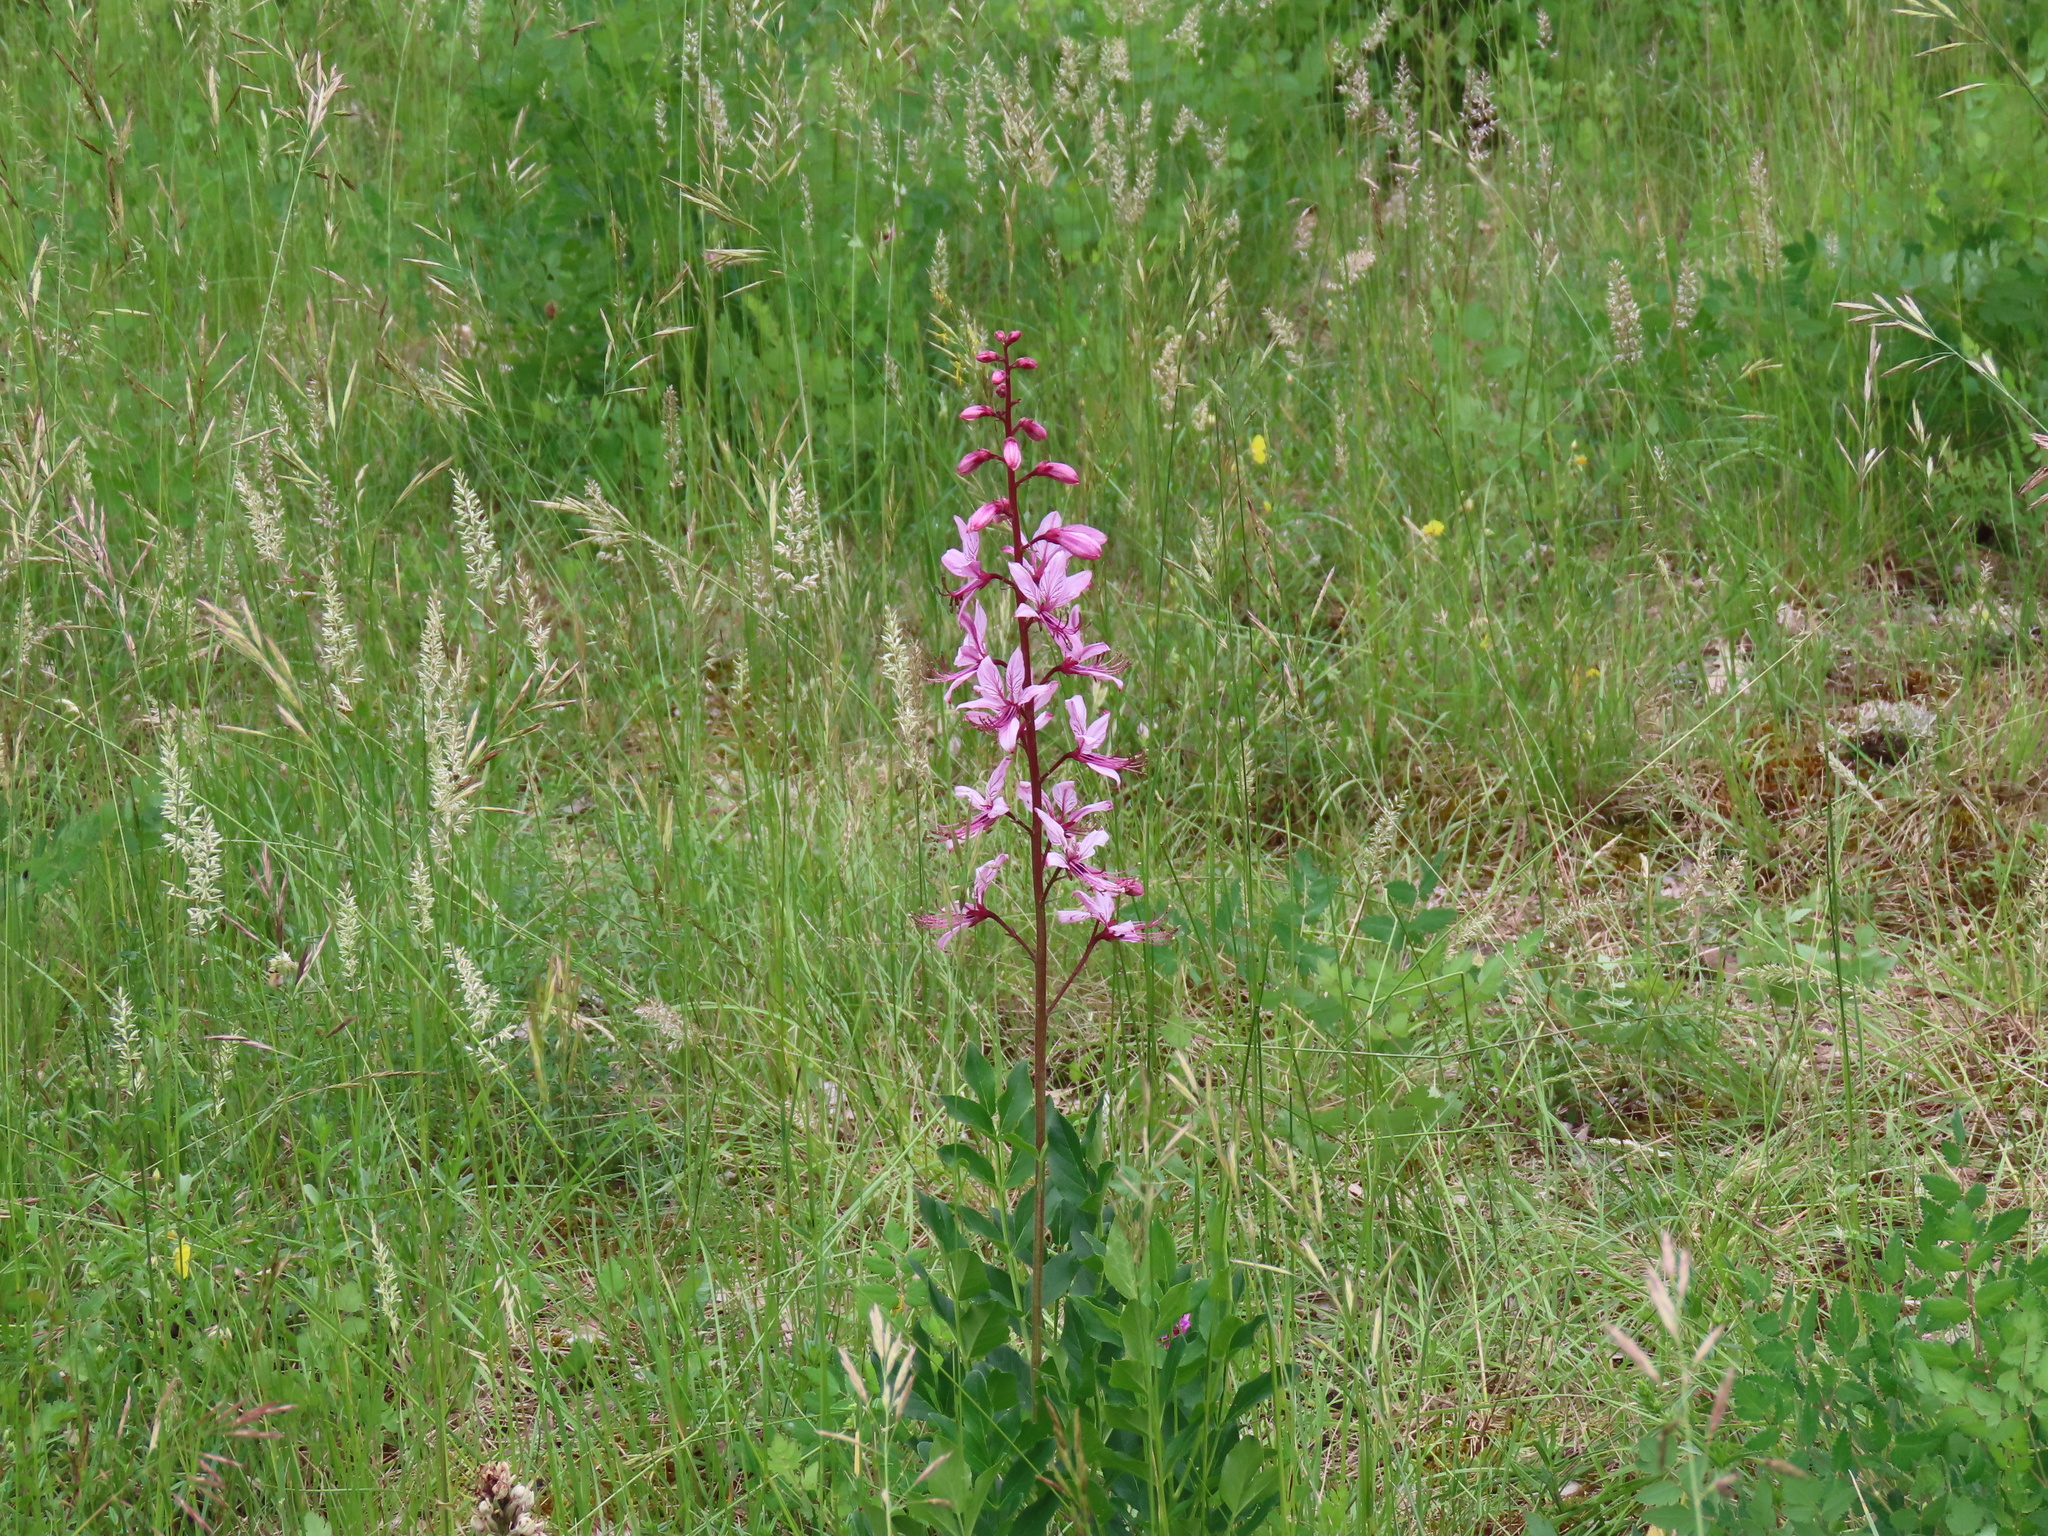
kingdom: Plantae
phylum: Tracheophyta
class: Magnoliopsida
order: Sapindales
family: Rutaceae
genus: Dictamnus
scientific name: Dictamnus albus
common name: Gasplant
